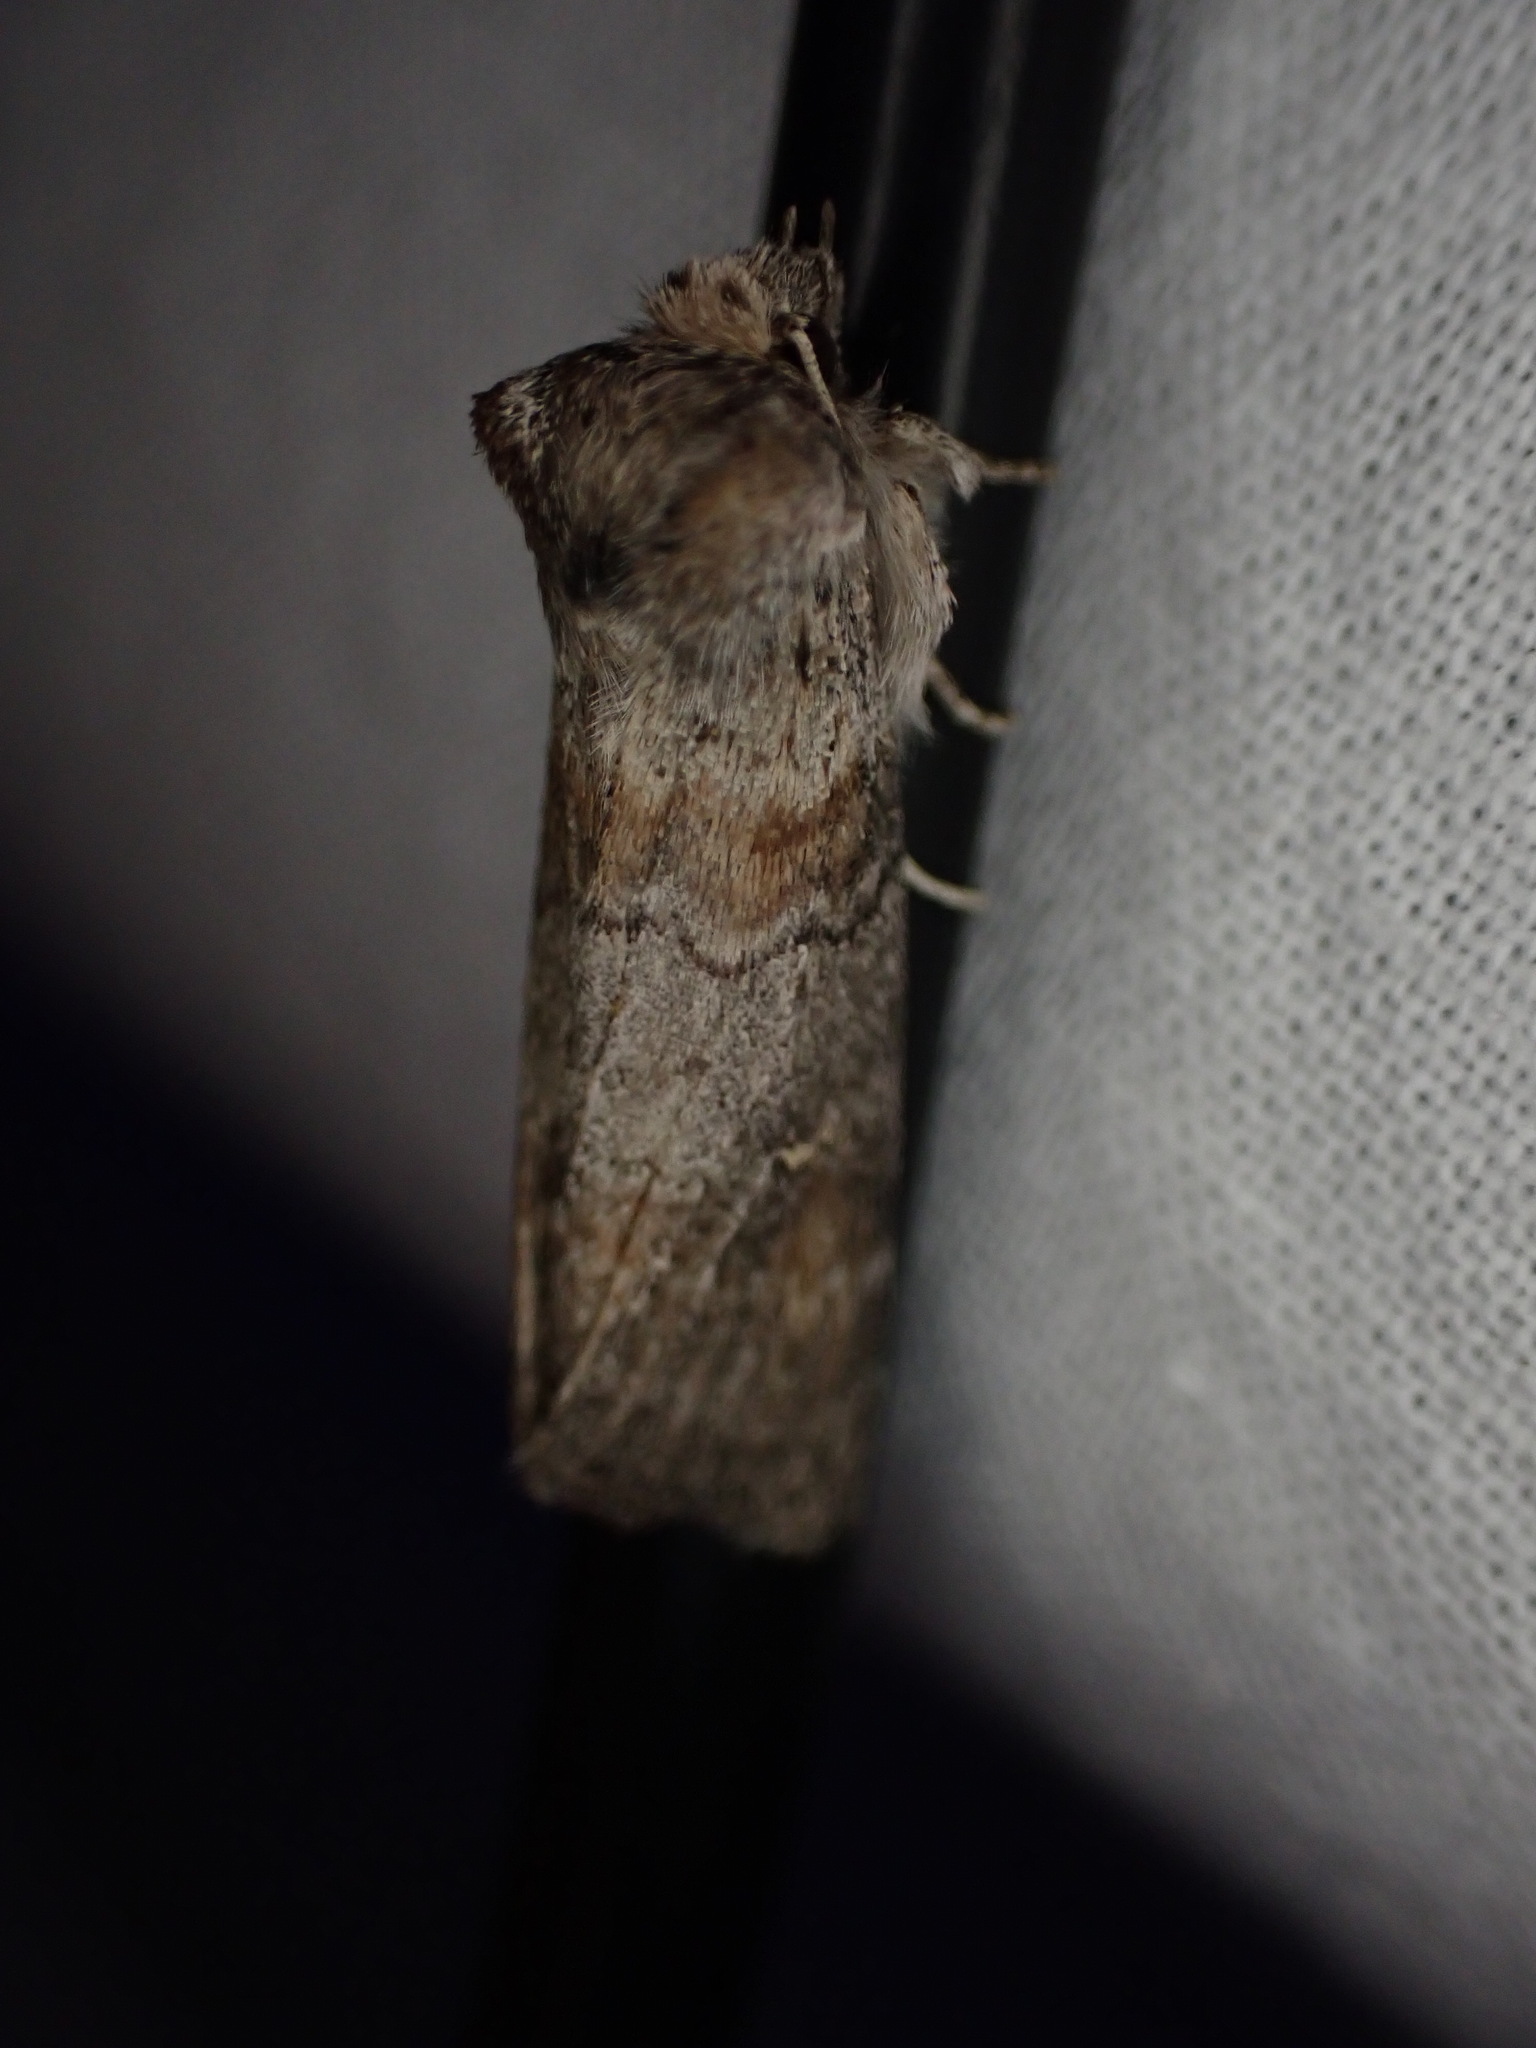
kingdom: Animalia
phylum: Arthropoda
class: Insecta
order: Lepidoptera
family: Drepanidae
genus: Cymatophorina
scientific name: Cymatophorina diluta
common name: Oak lutestring
